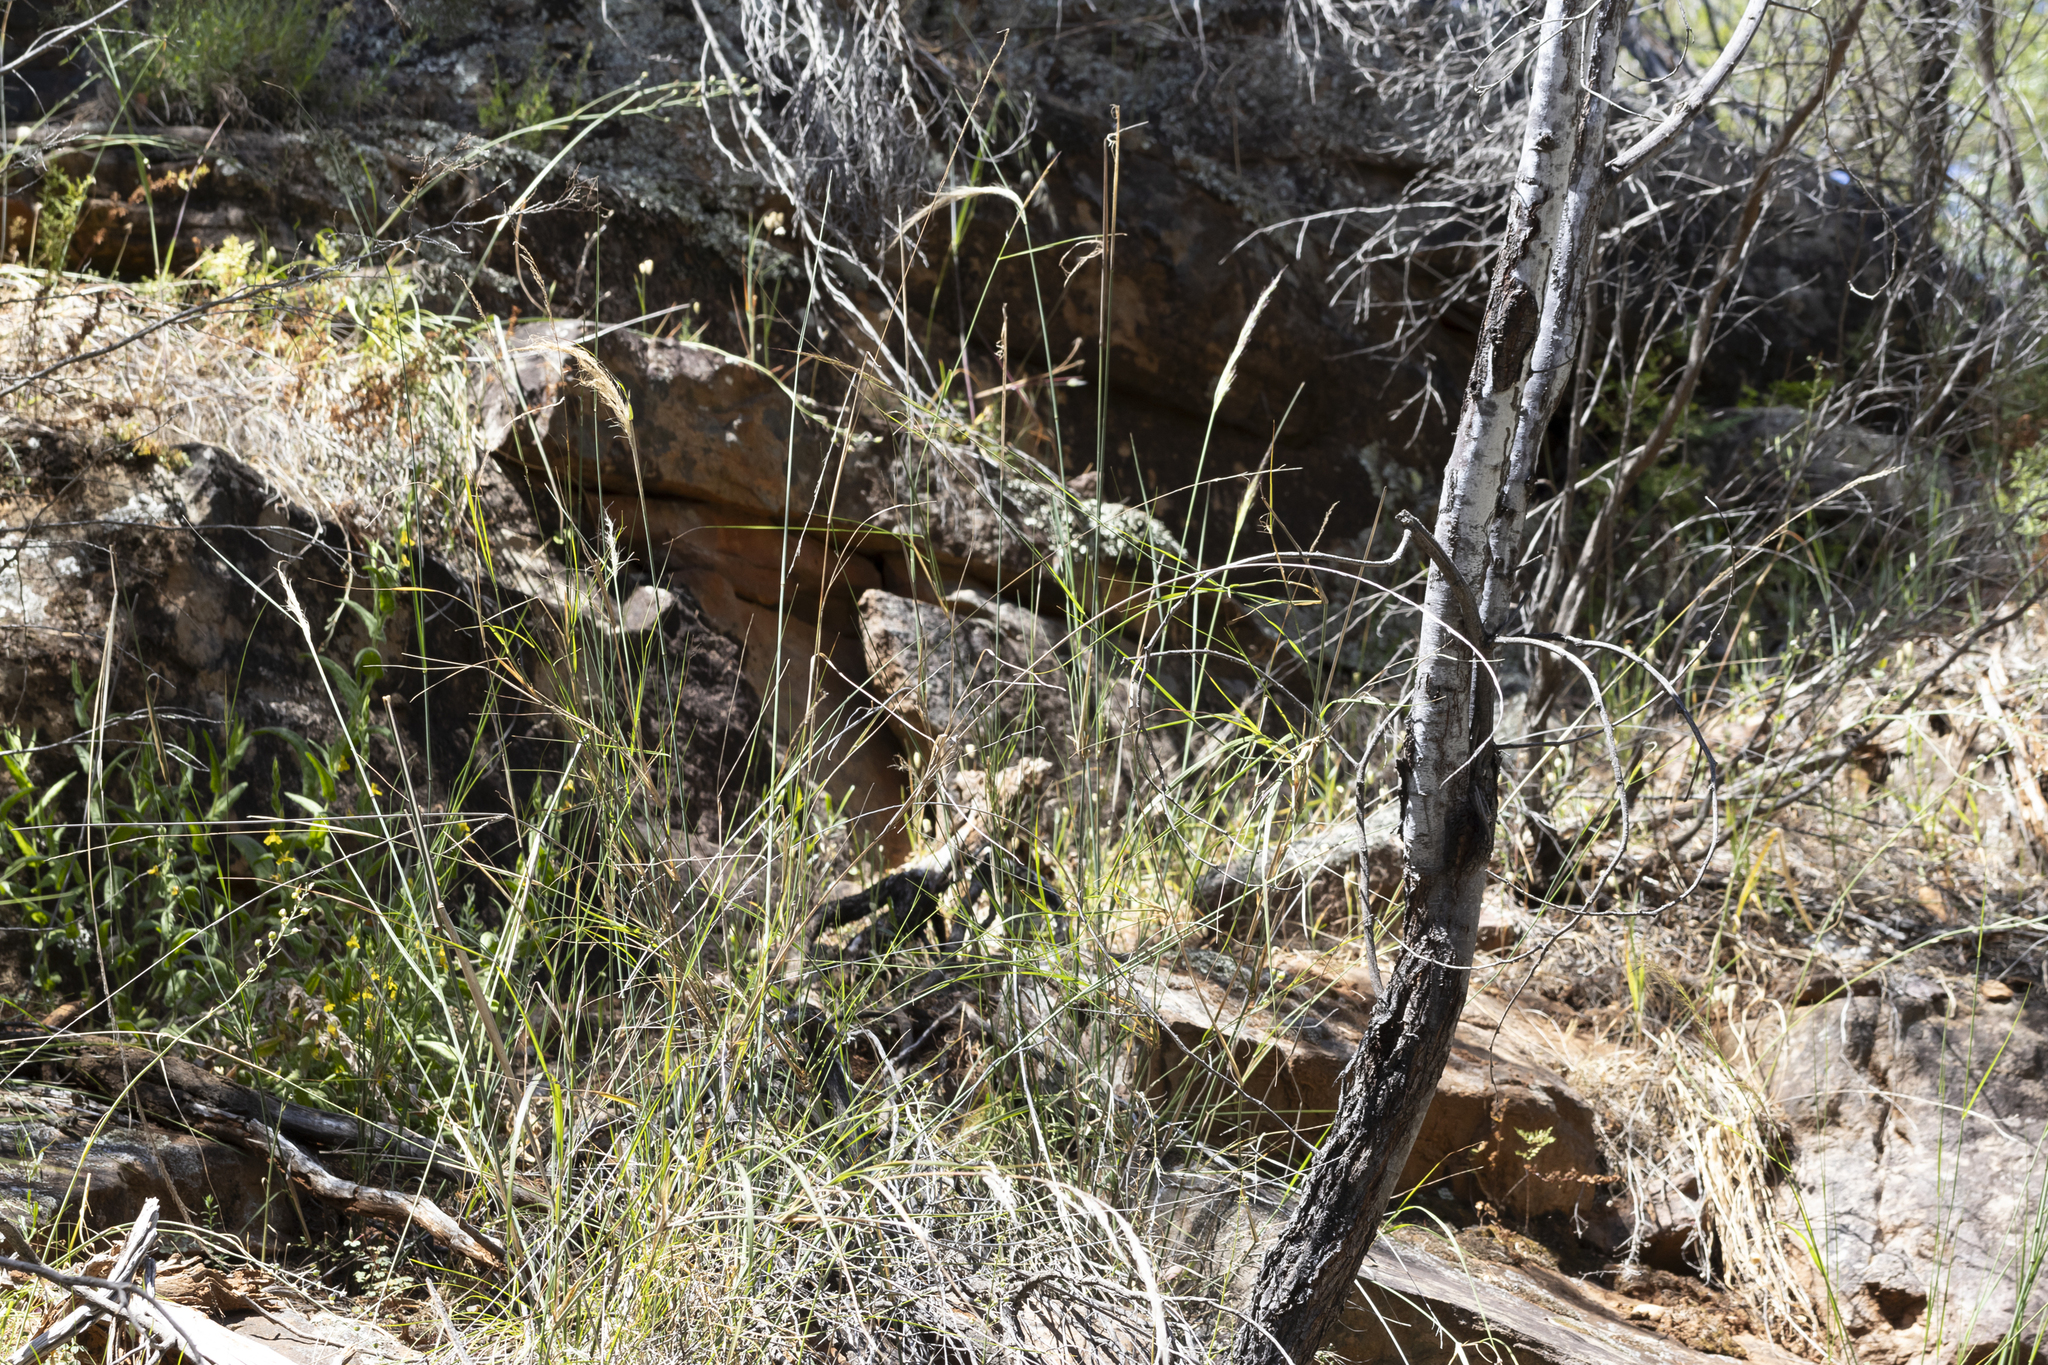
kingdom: Plantae
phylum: Tracheophyta
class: Liliopsida
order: Poales
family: Poaceae
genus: Austrostipa
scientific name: Austrostipa breviglumis
